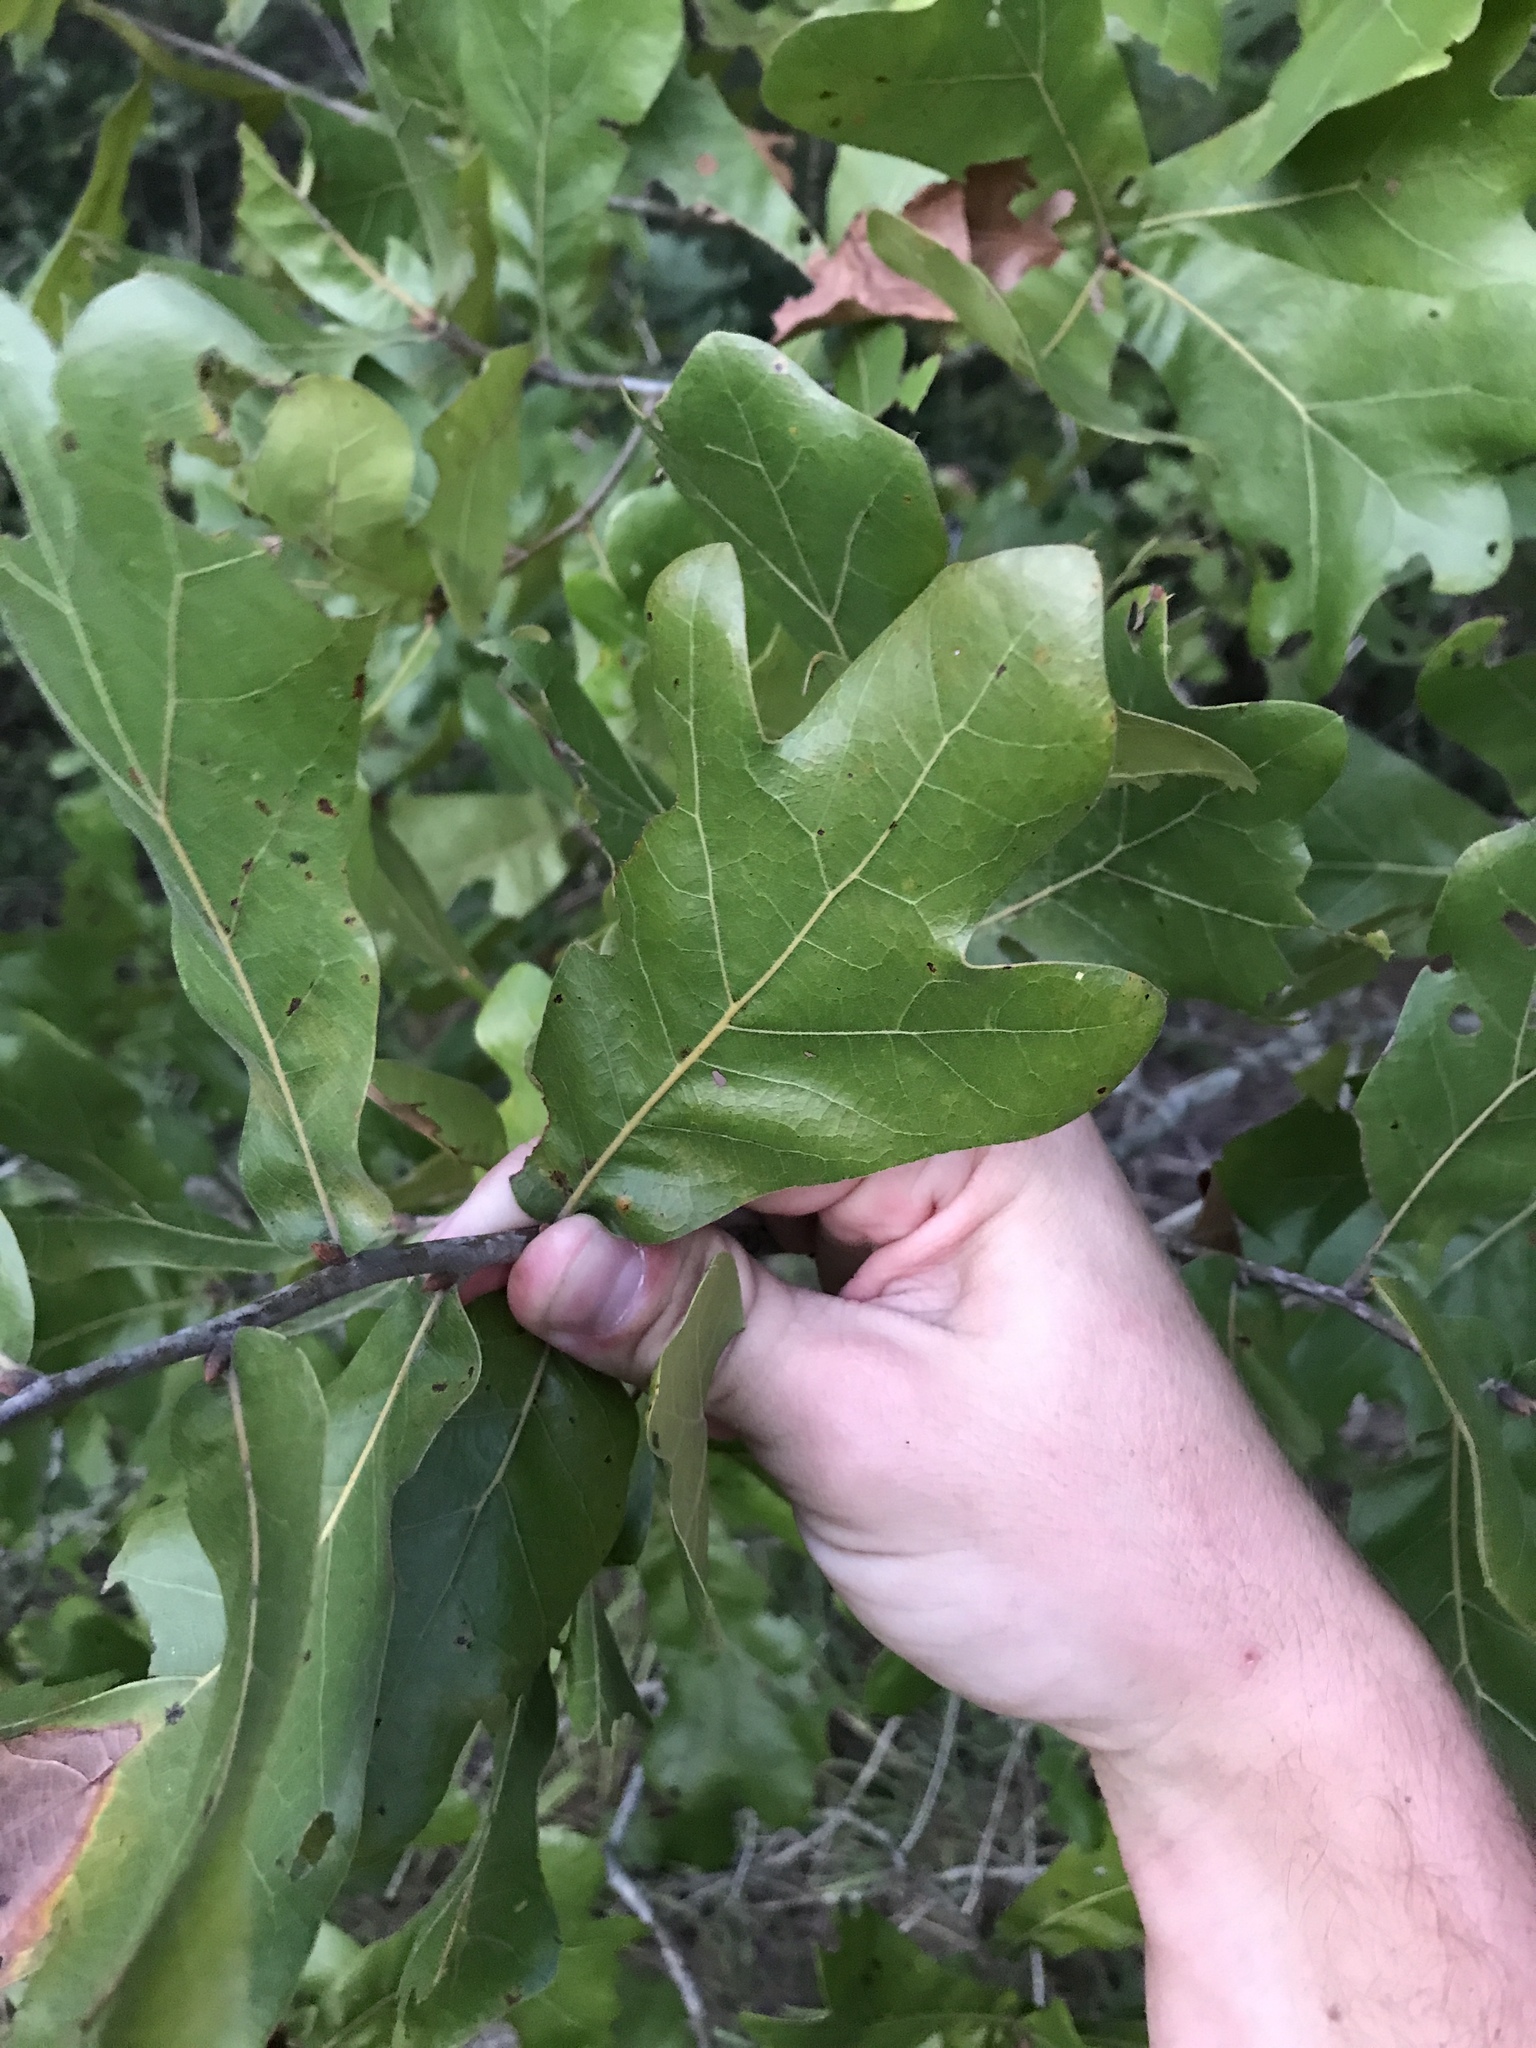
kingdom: Plantae
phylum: Tracheophyta
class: Magnoliopsida
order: Fagales
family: Fagaceae
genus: Quercus
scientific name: Quercus marilandica
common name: Blackjack oak
